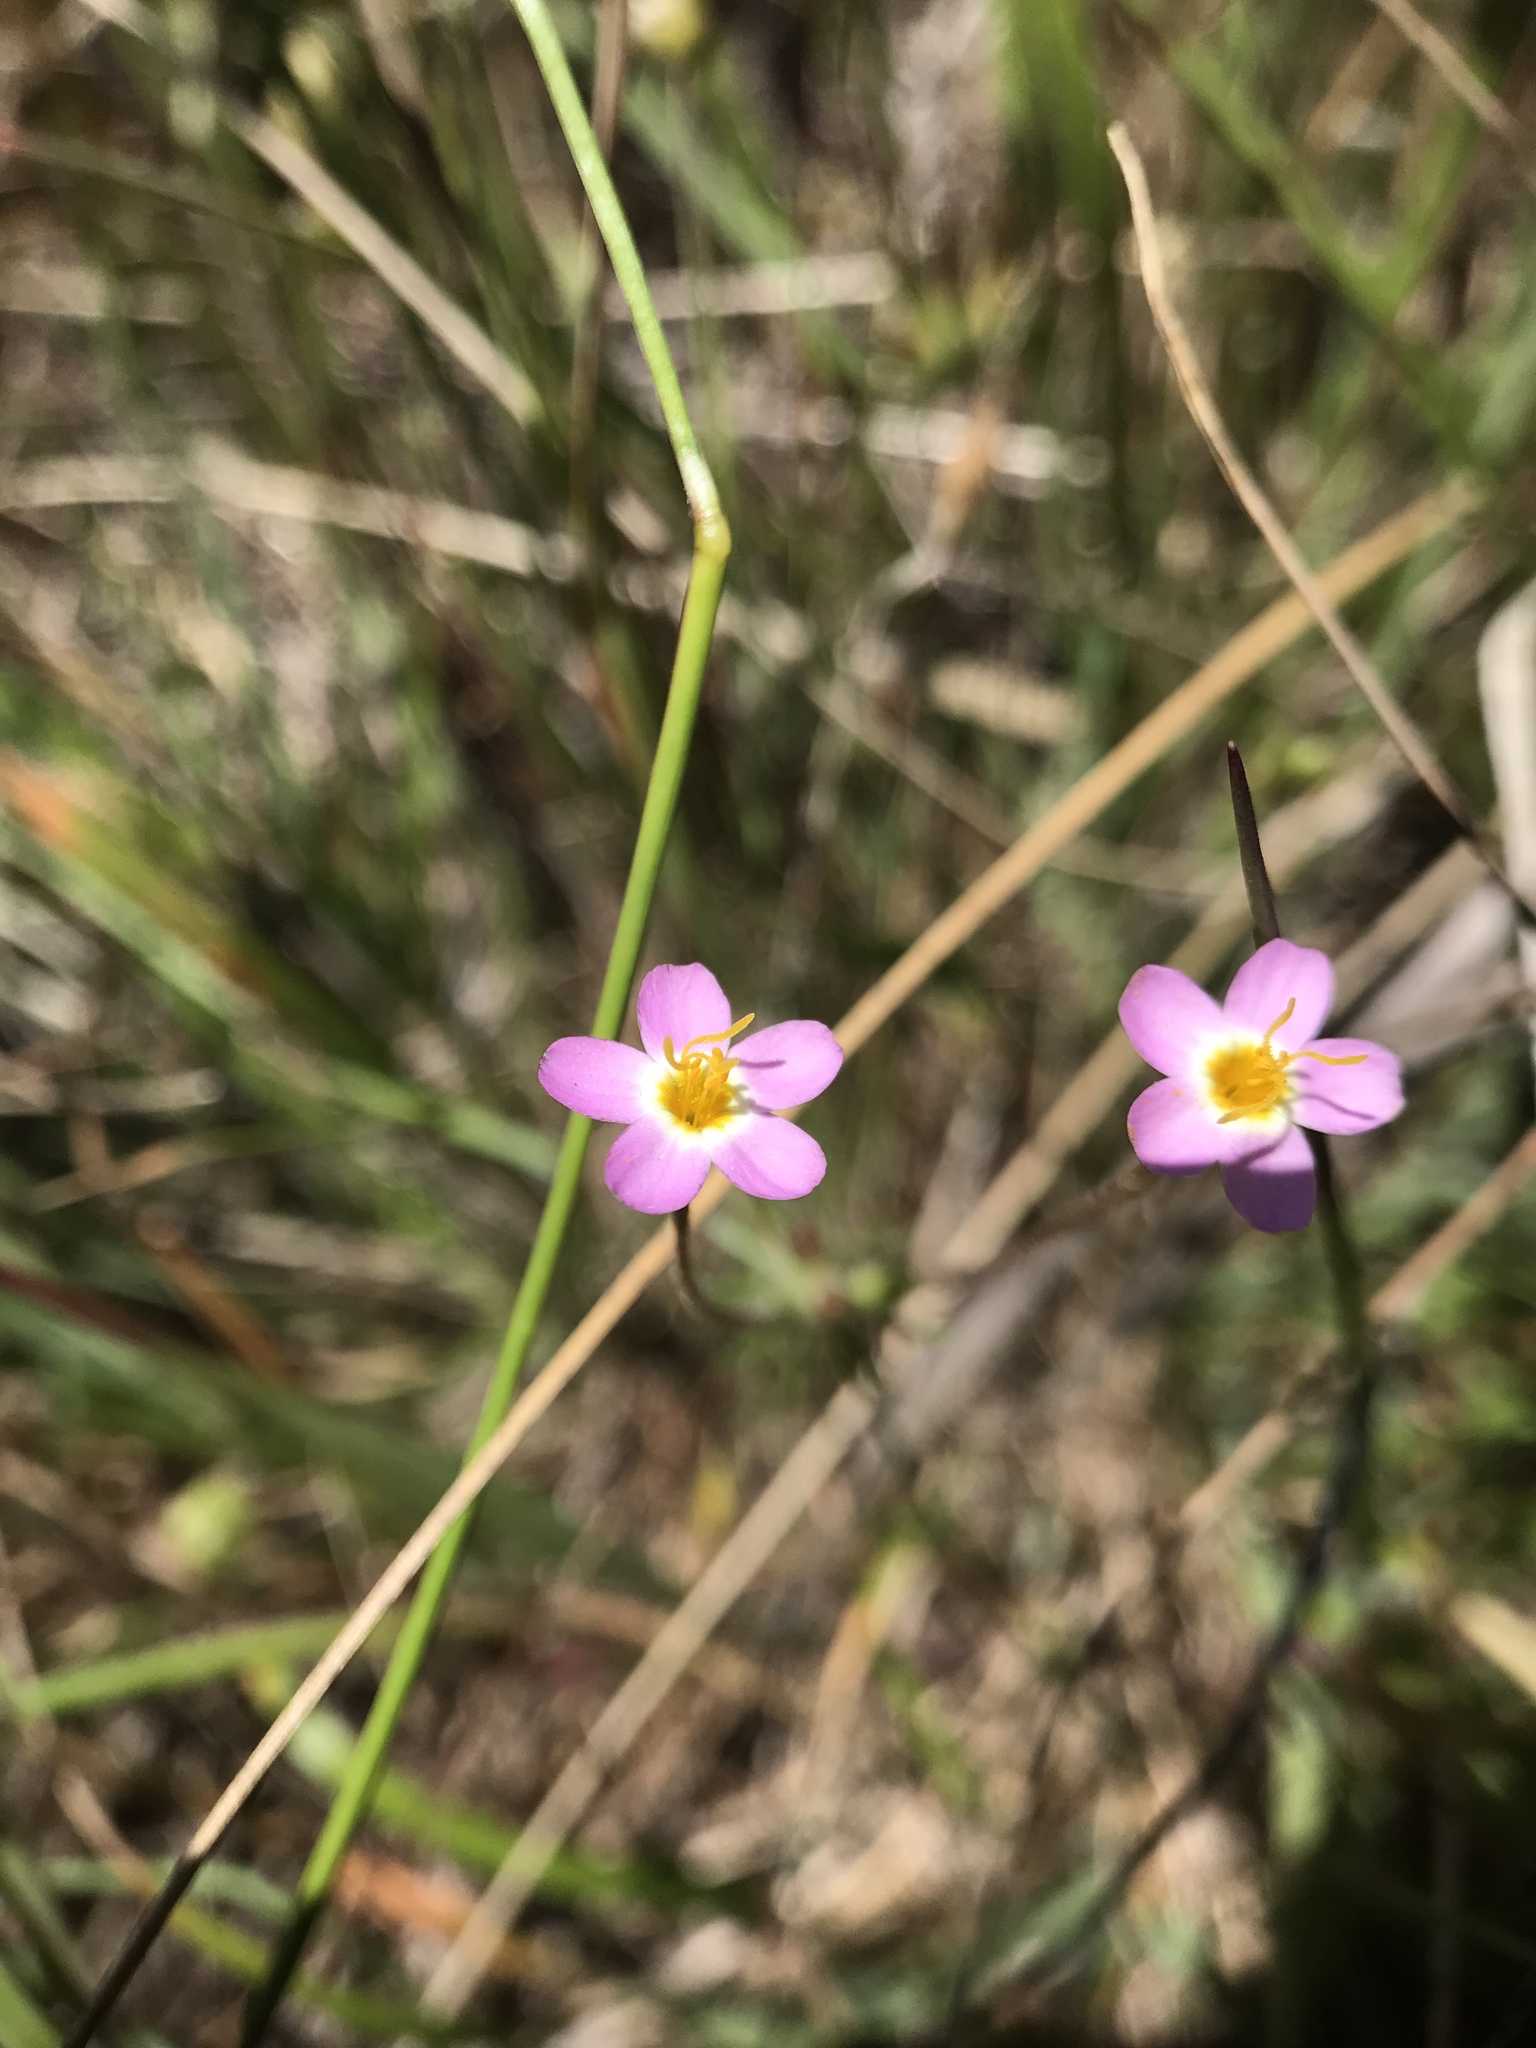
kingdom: Plantae
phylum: Tracheophyta
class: Magnoliopsida
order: Ericales
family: Polemoniaceae
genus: Leptosiphon
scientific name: Leptosiphon parviflorus
